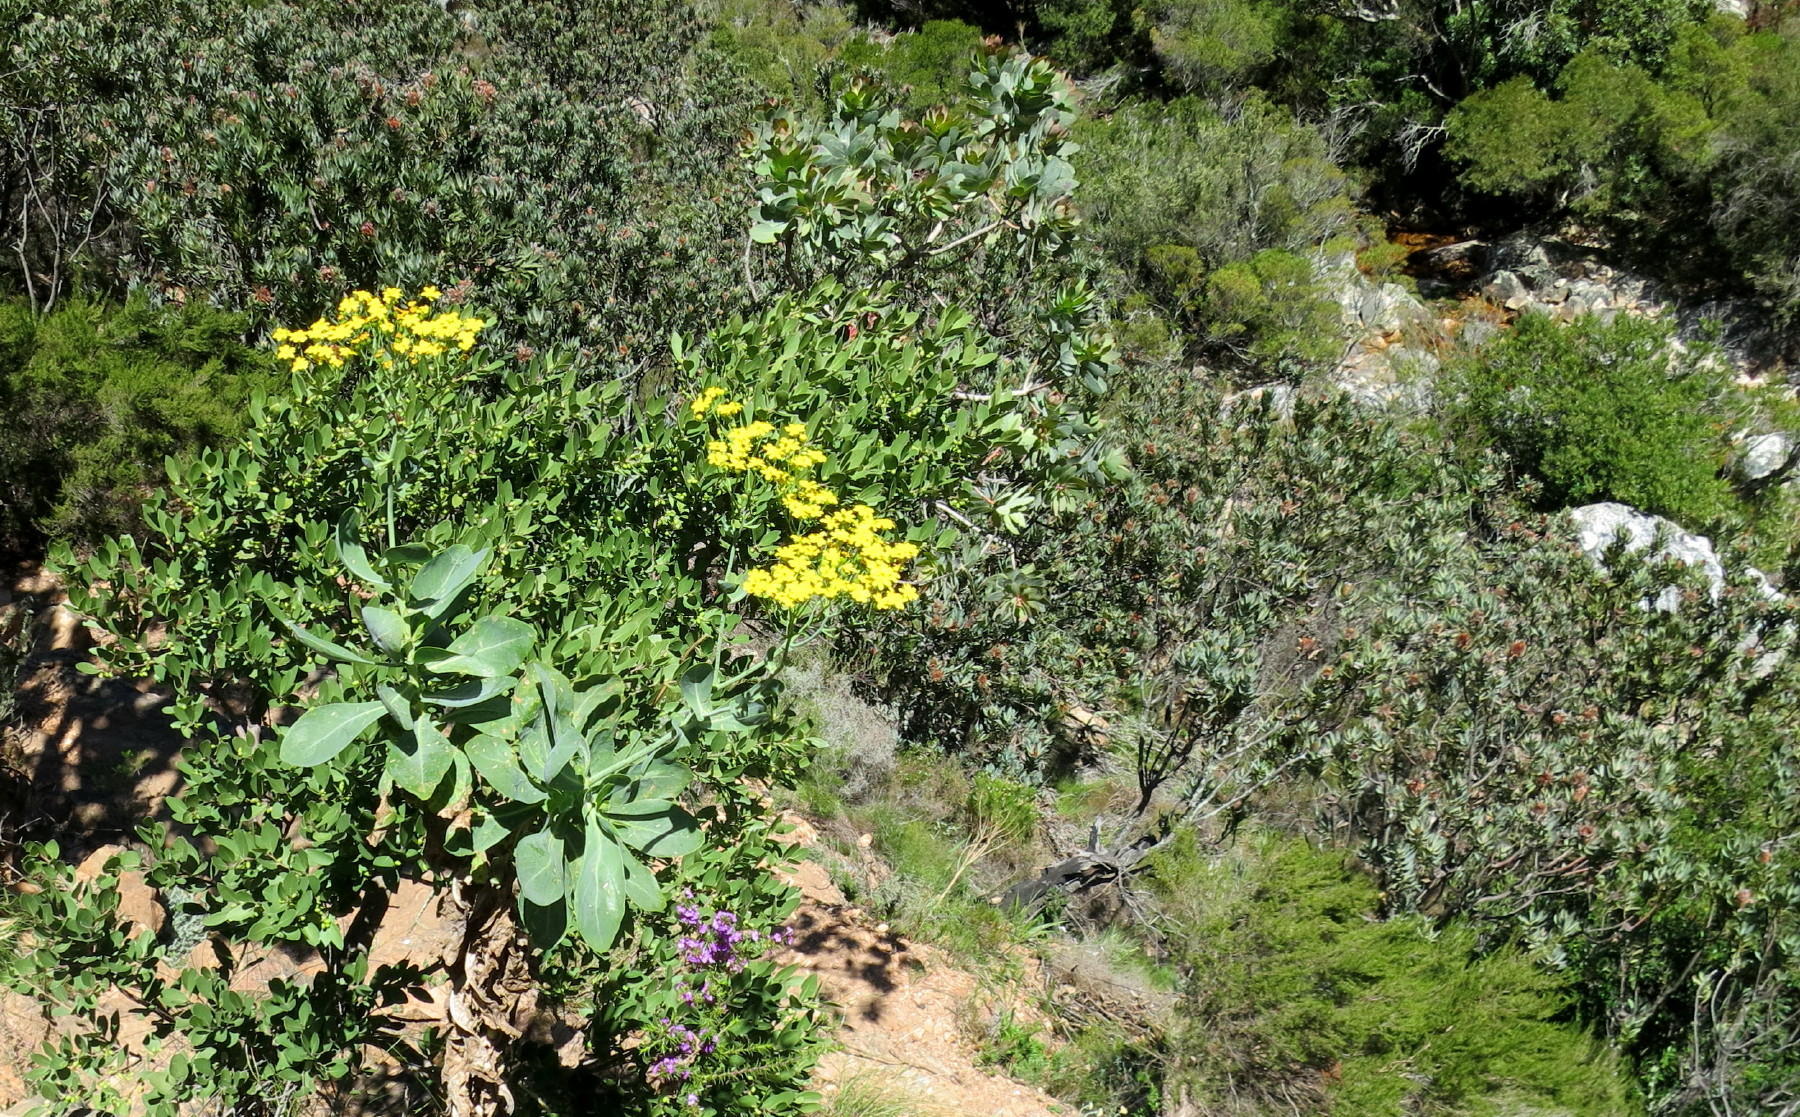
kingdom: Plantae
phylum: Tracheophyta
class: Magnoliopsida
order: Asterales
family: Asteraceae
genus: Othonna
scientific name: Othonna parviflora
